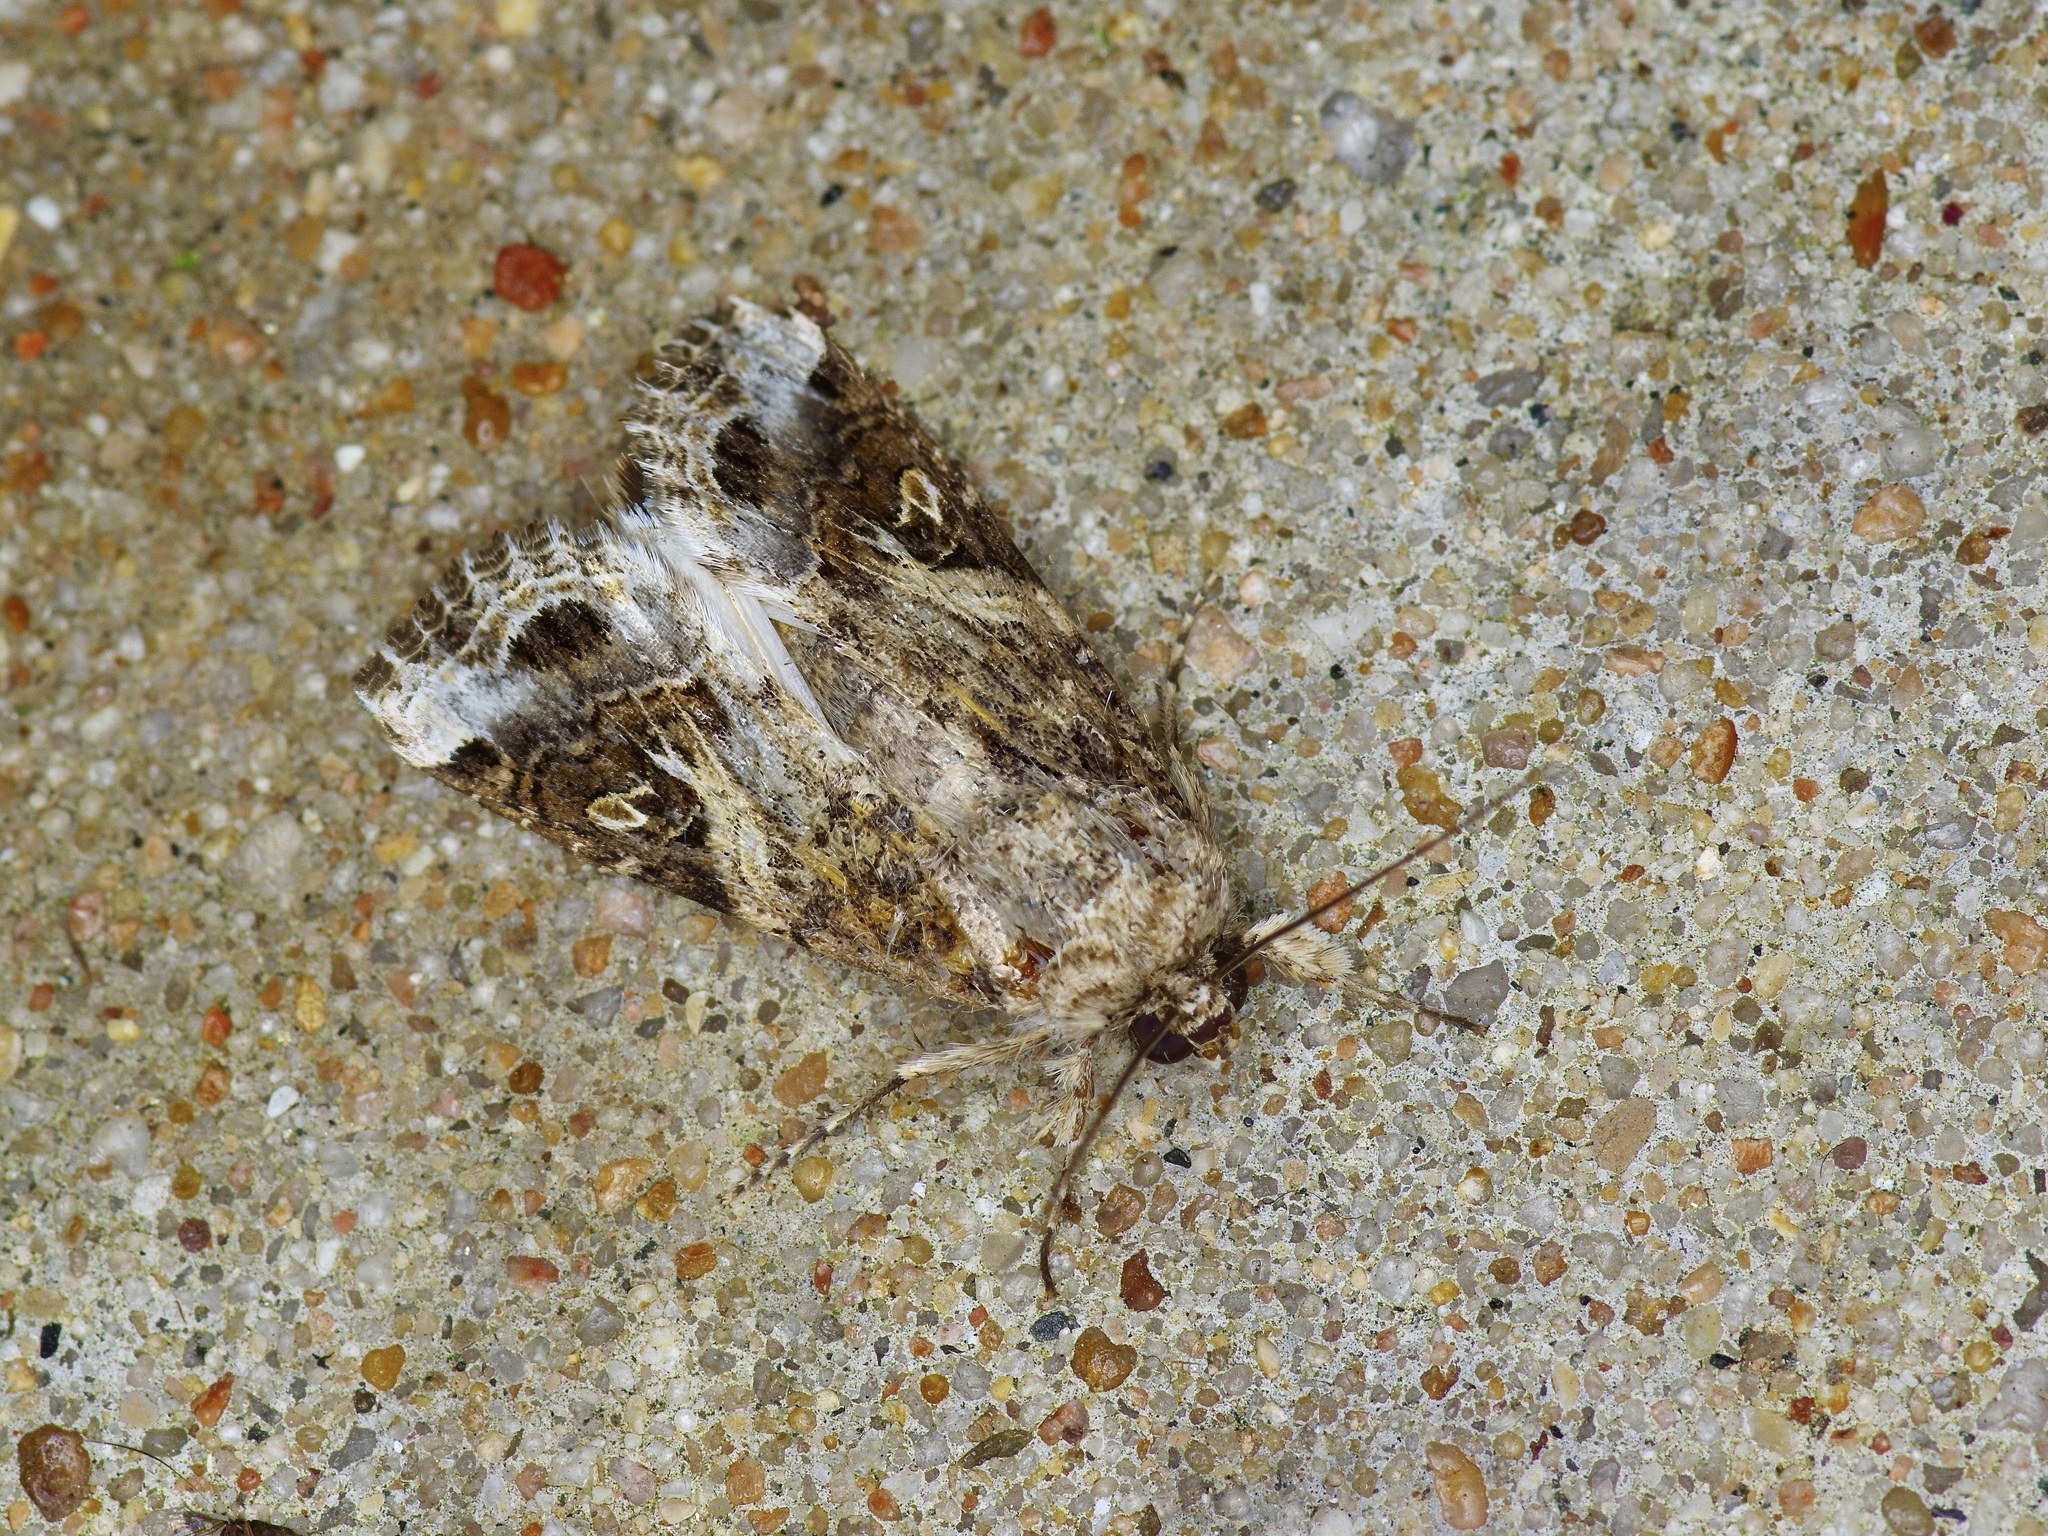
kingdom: Animalia
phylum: Arthropoda
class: Insecta
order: Lepidoptera
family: Noctuidae
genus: Spodoptera
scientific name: Spodoptera ornithogalli
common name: Yellow-striped armyworm
